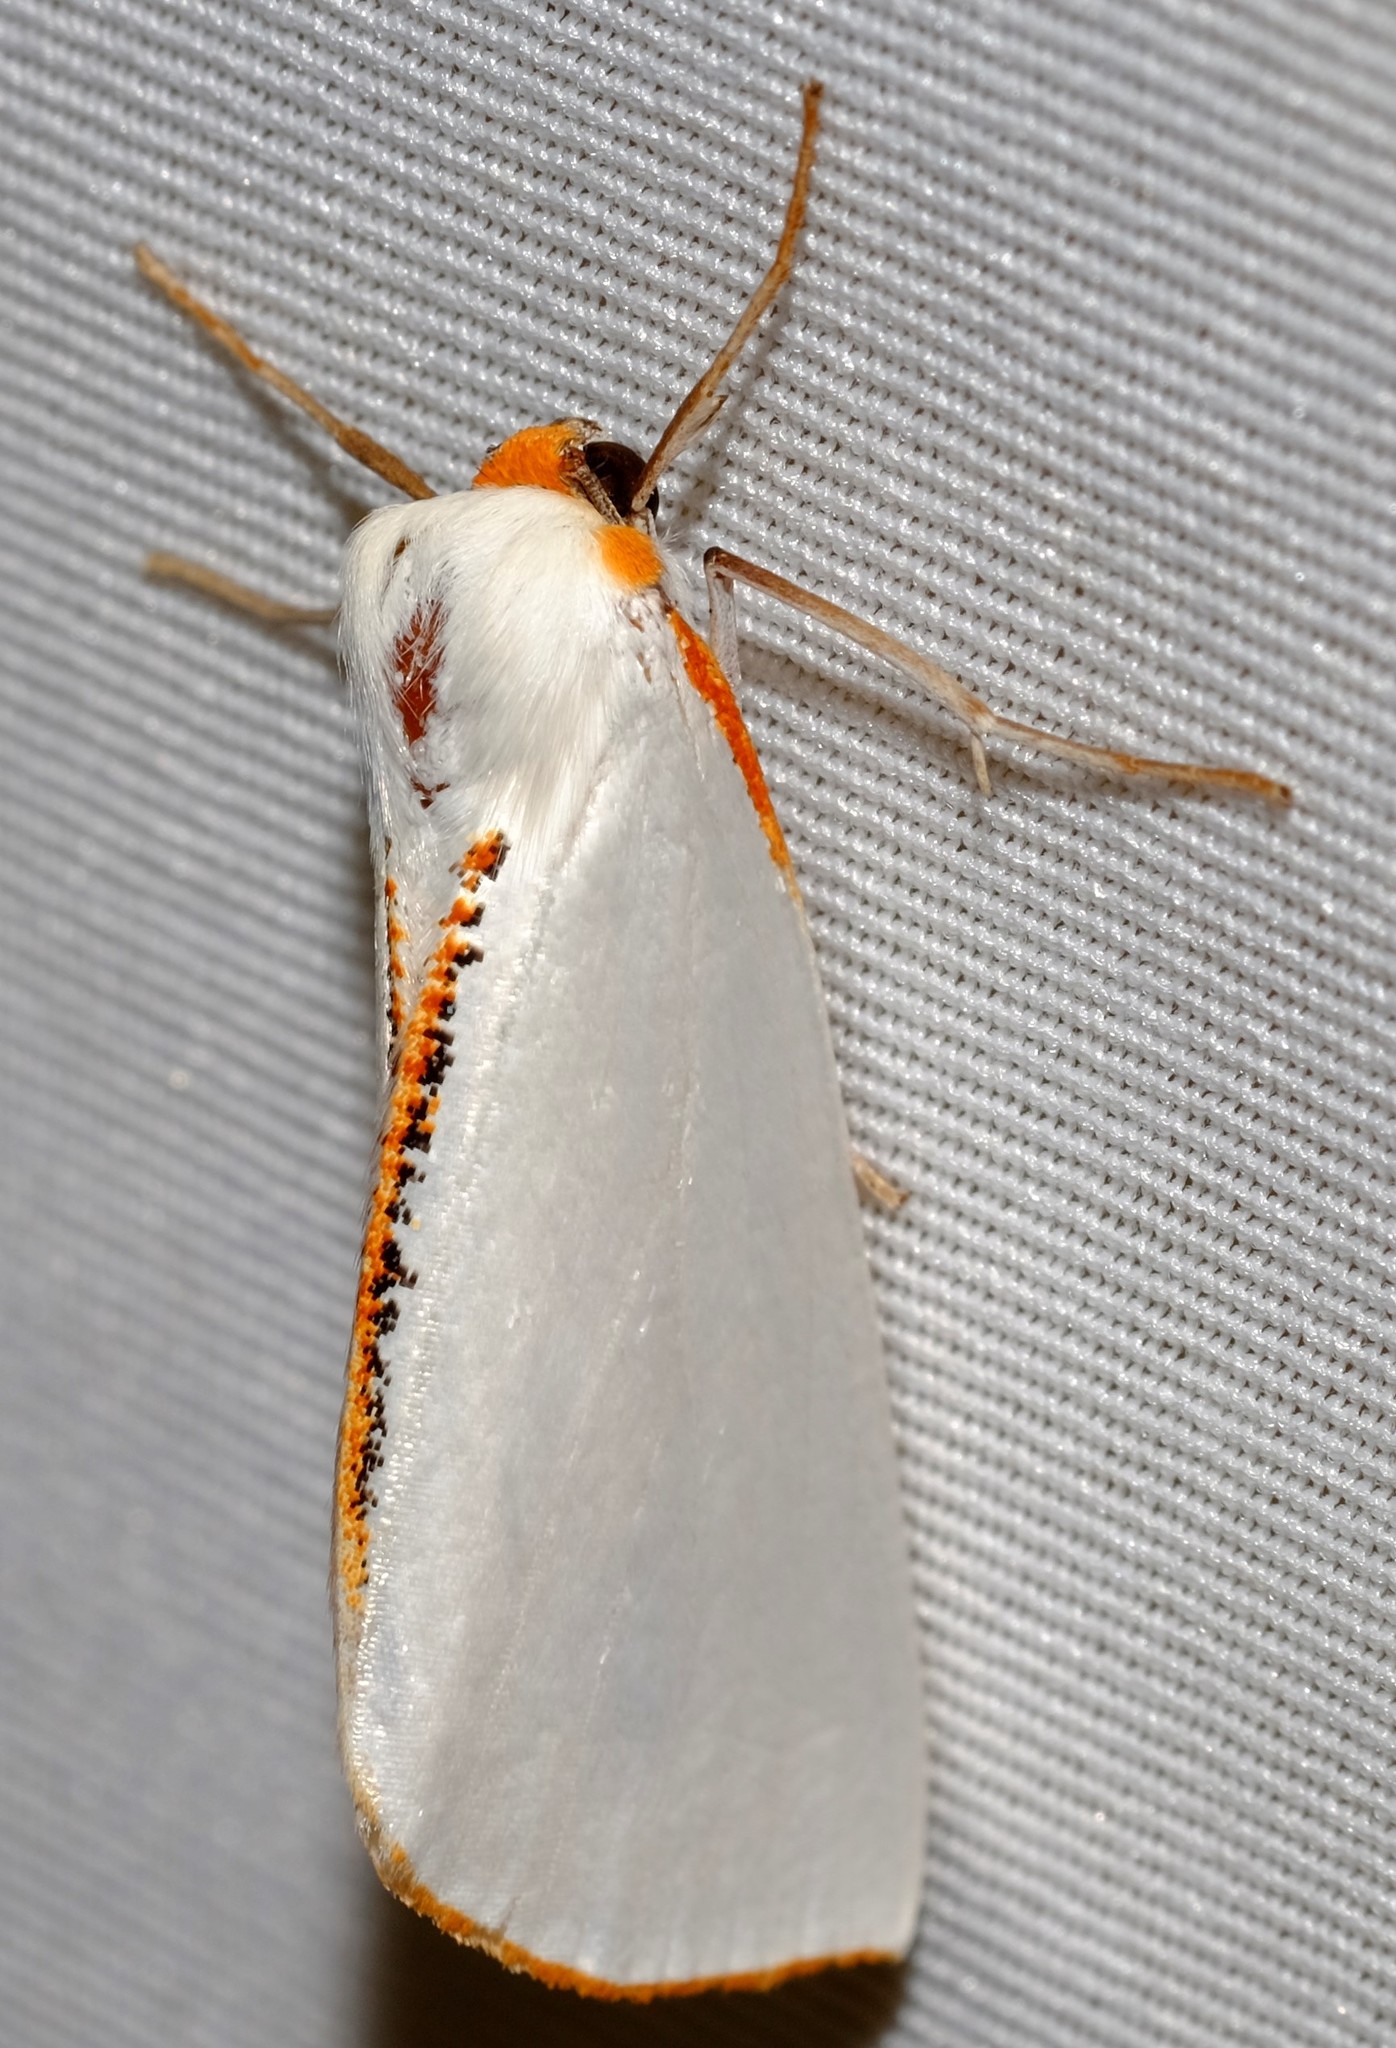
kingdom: Animalia
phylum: Arthropoda
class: Insecta
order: Lepidoptera
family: Geometridae
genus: Thalaina
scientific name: Thalaina selenaea
